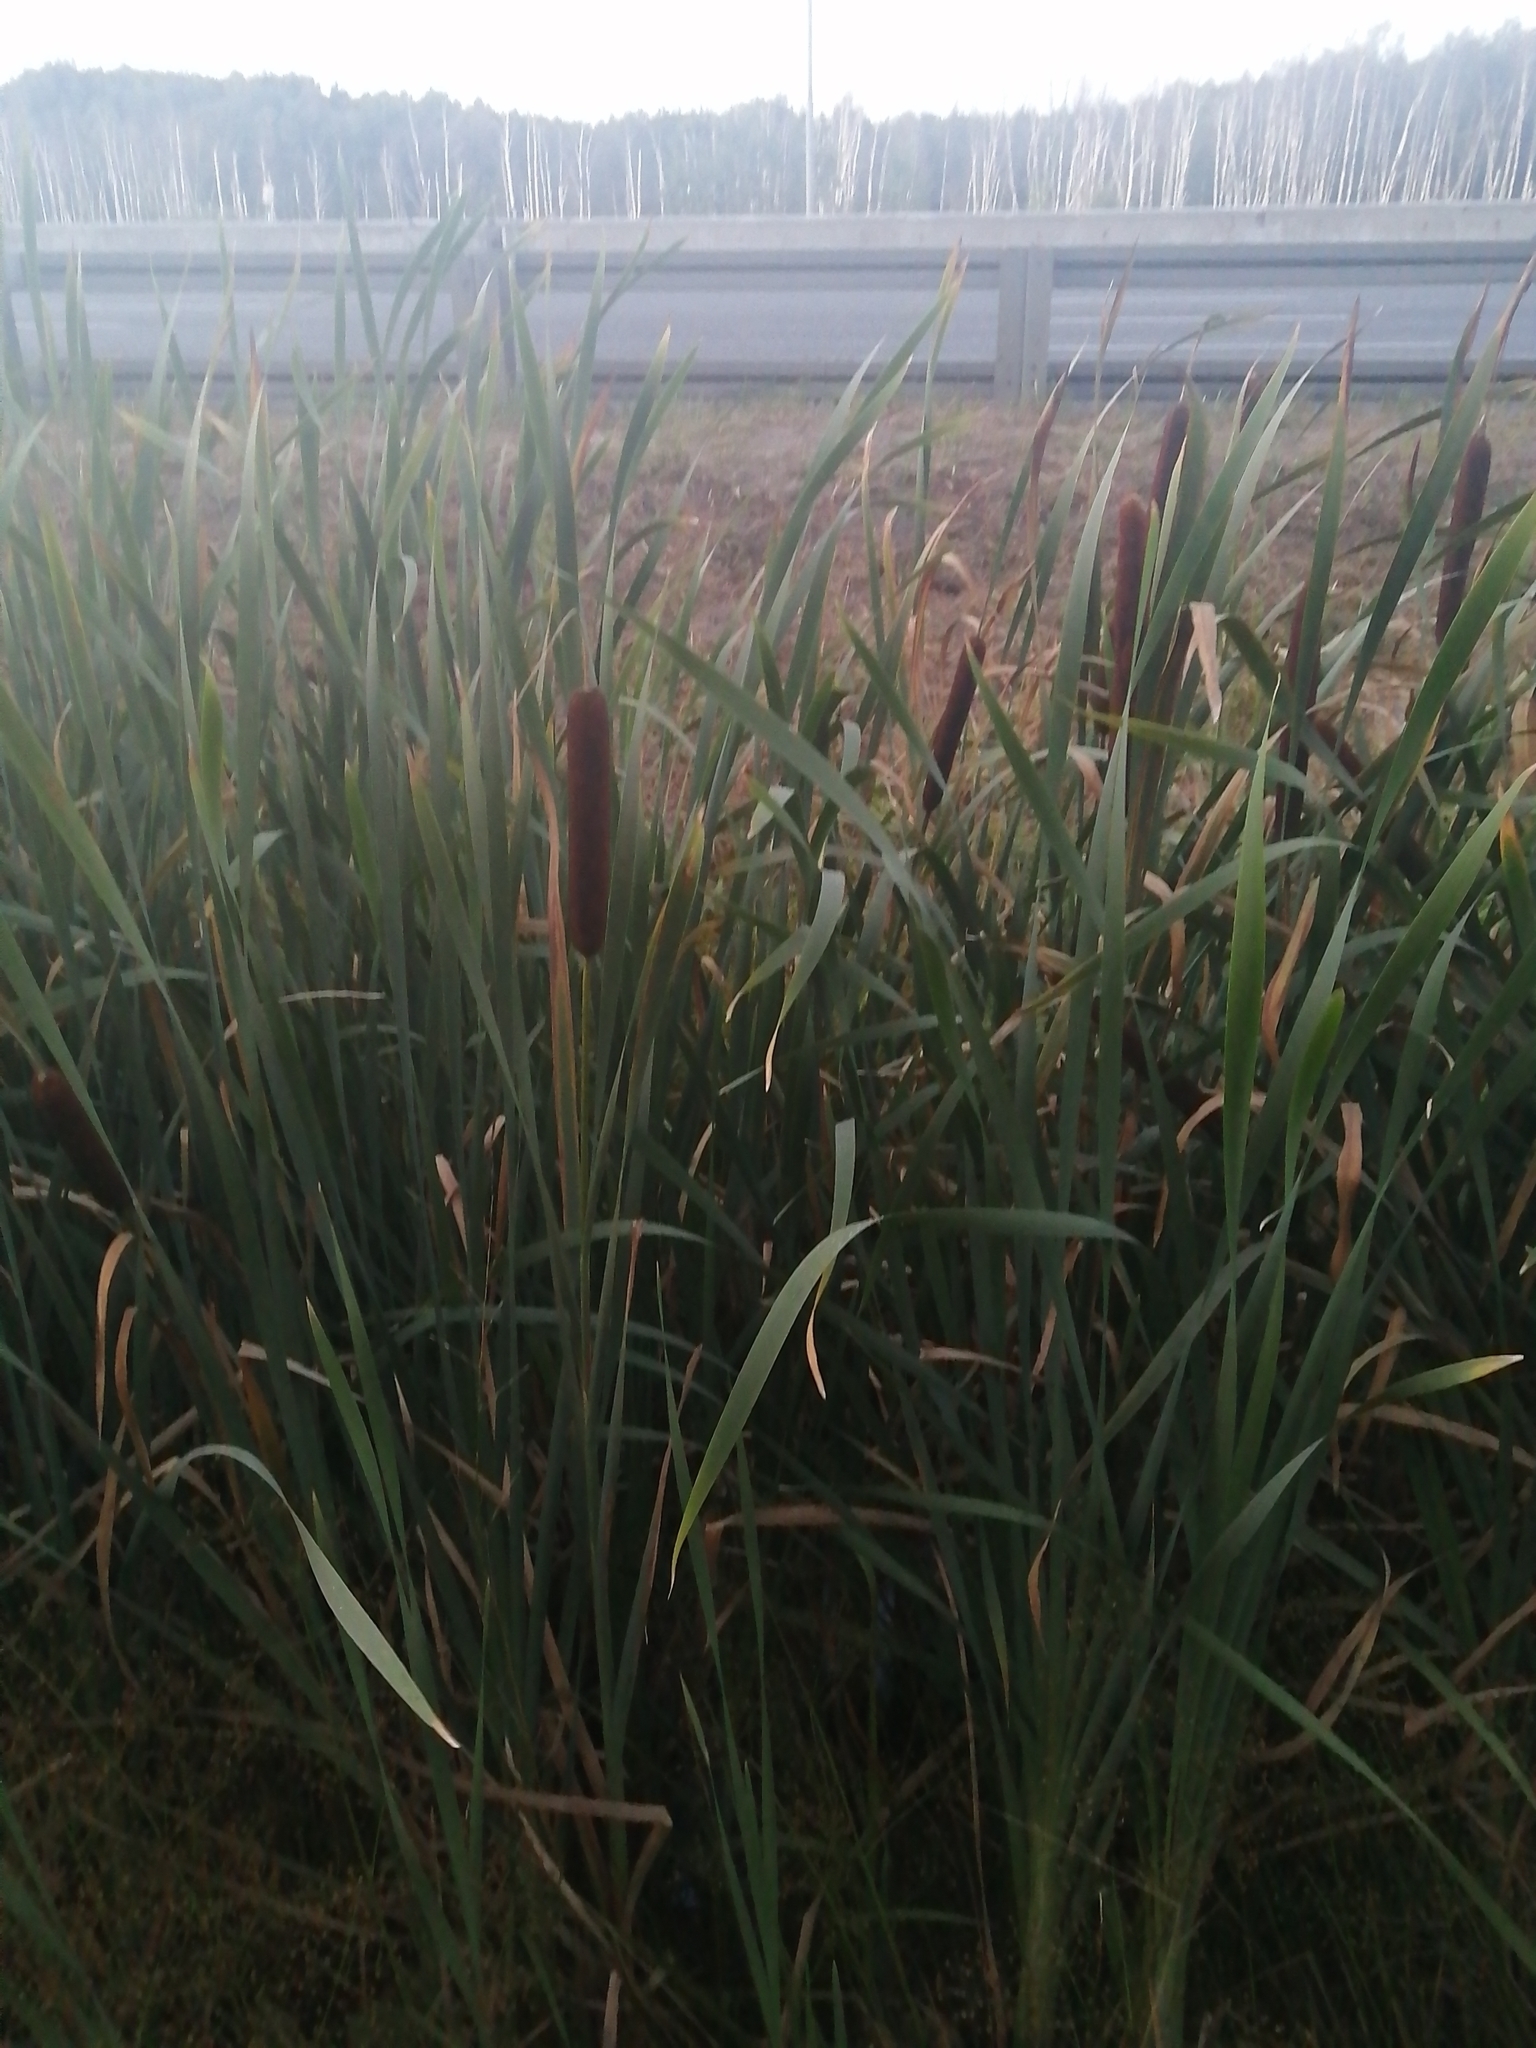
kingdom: Plantae
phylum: Tracheophyta
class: Liliopsida
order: Poales
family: Typhaceae
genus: Typha
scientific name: Typha latifolia
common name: Broadleaf cattail
